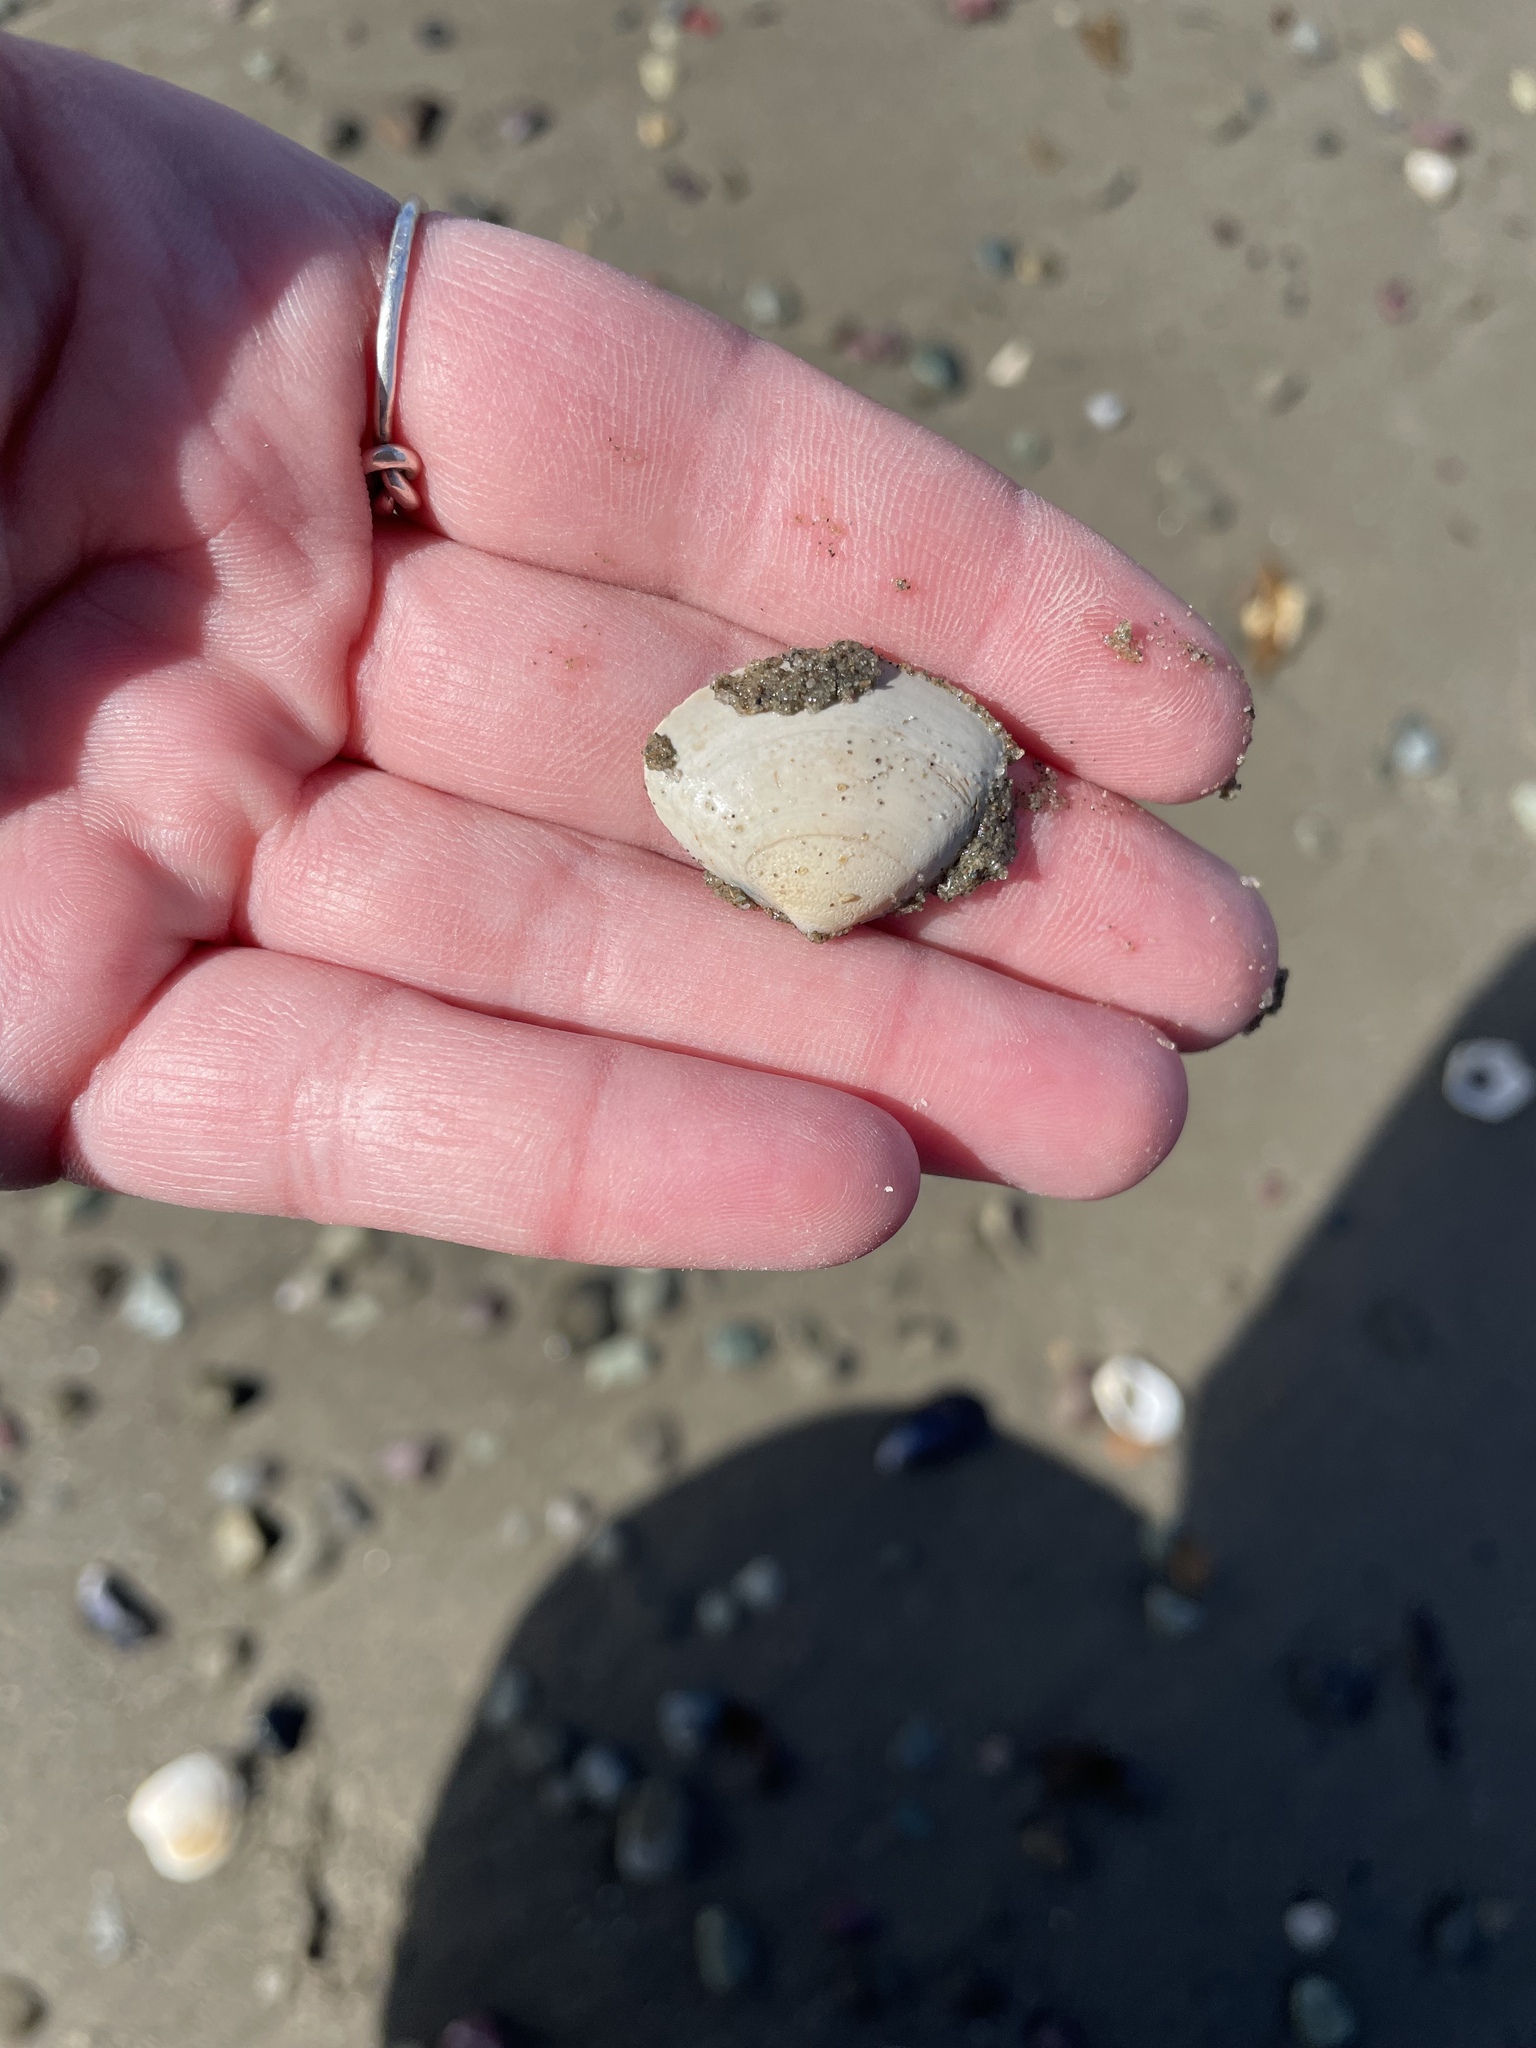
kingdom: Animalia
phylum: Mollusca
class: Bivalvia
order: Venerida
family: Mactridae
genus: Spisula
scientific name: Spisula solidissima
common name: Atlantic surf clam
